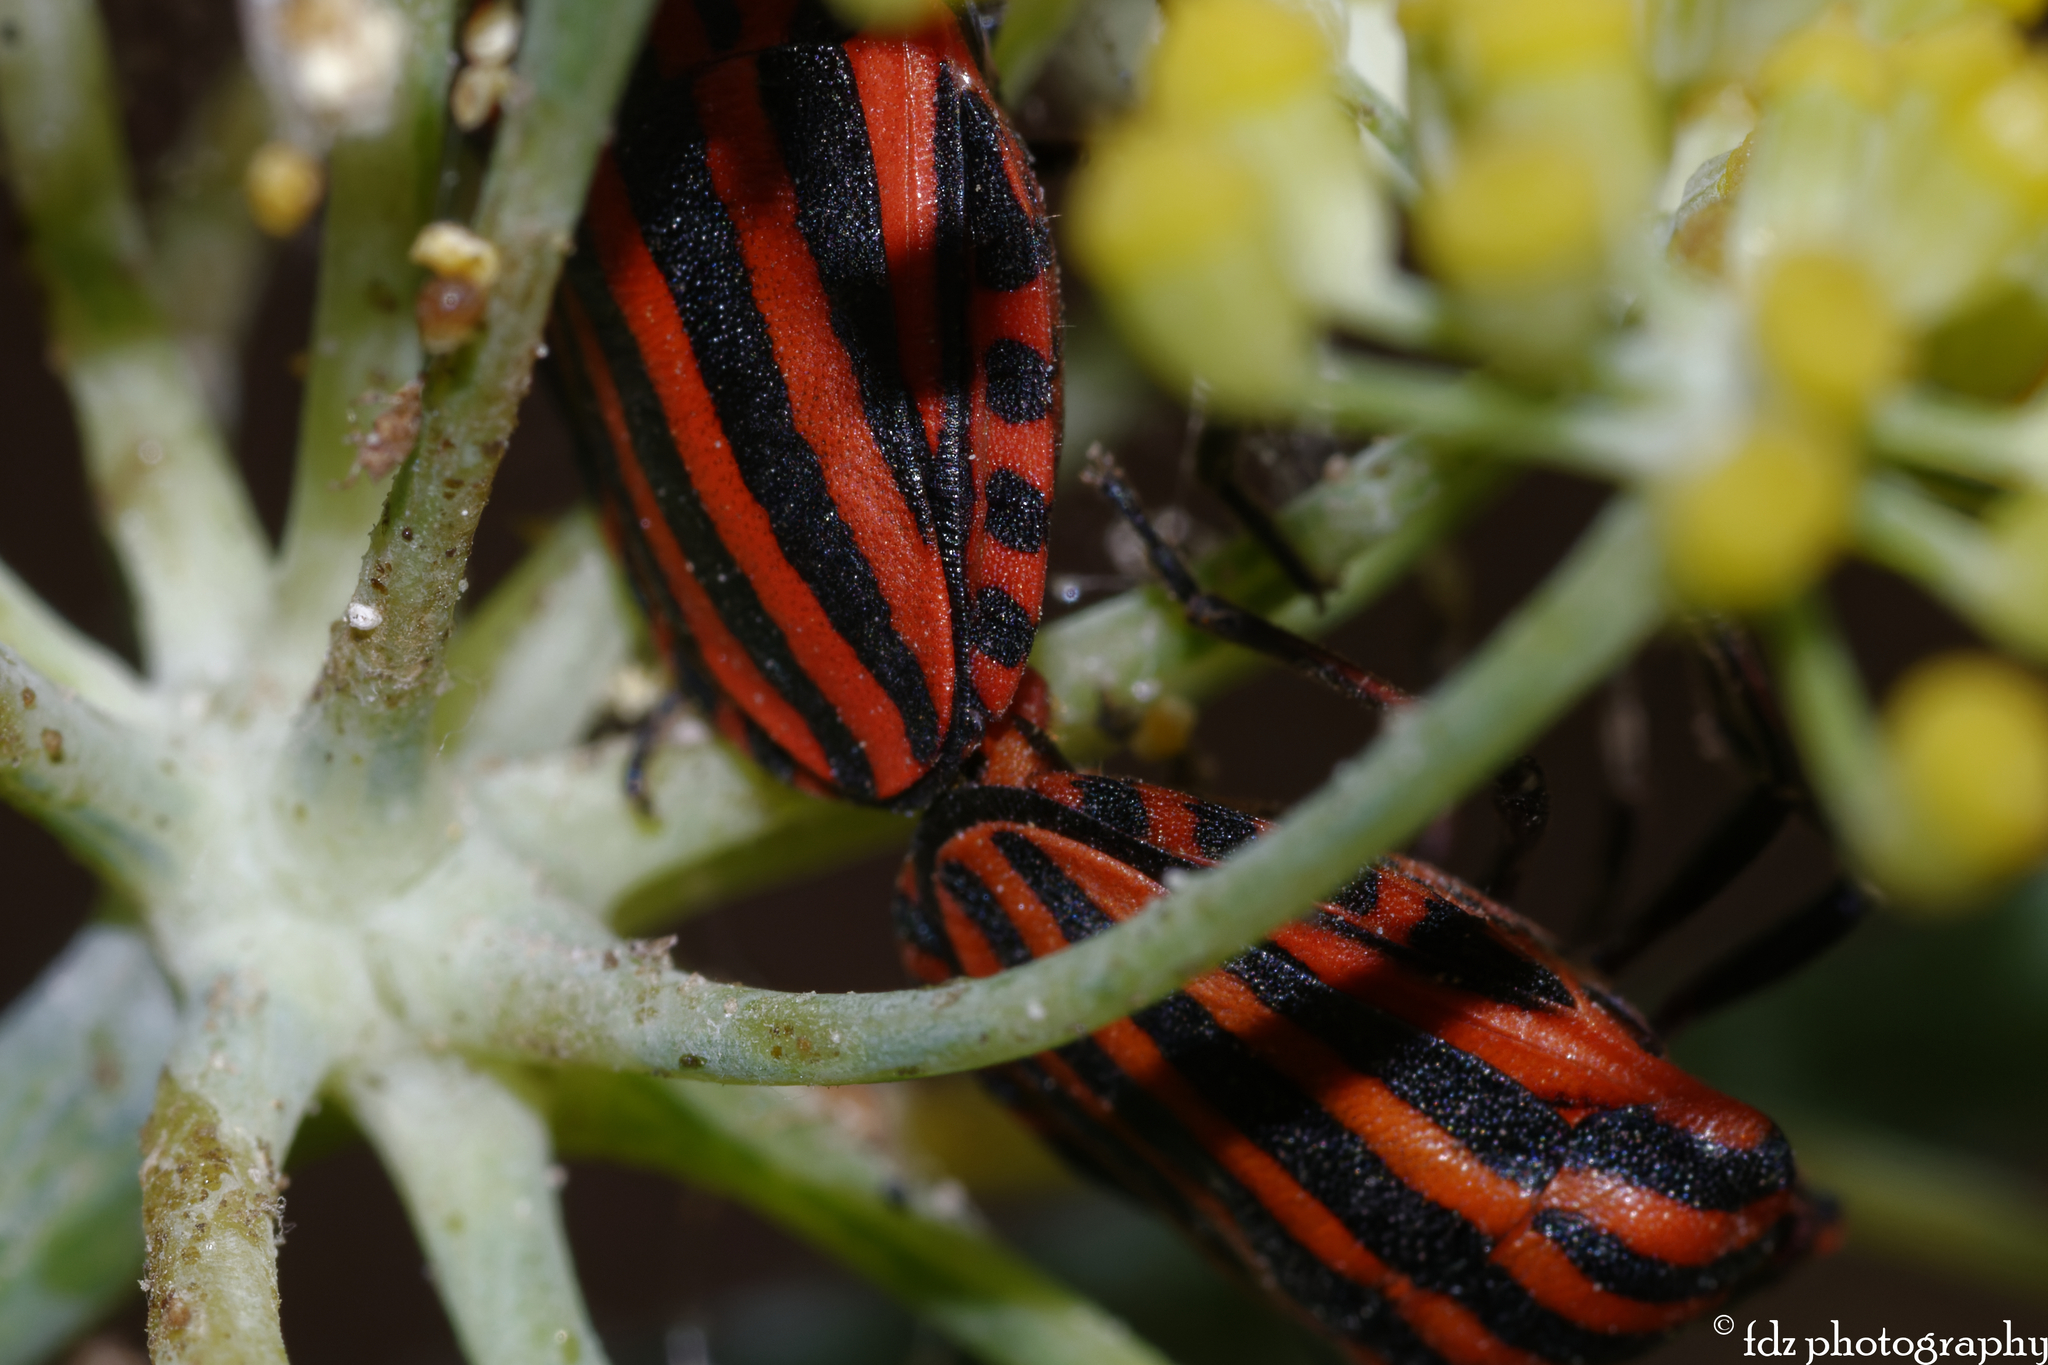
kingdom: Animalia
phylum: Arthropoda
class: Insecta
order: Hemiptera
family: Pentatomidae
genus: Graphosoma
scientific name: Graphosoma italicum
